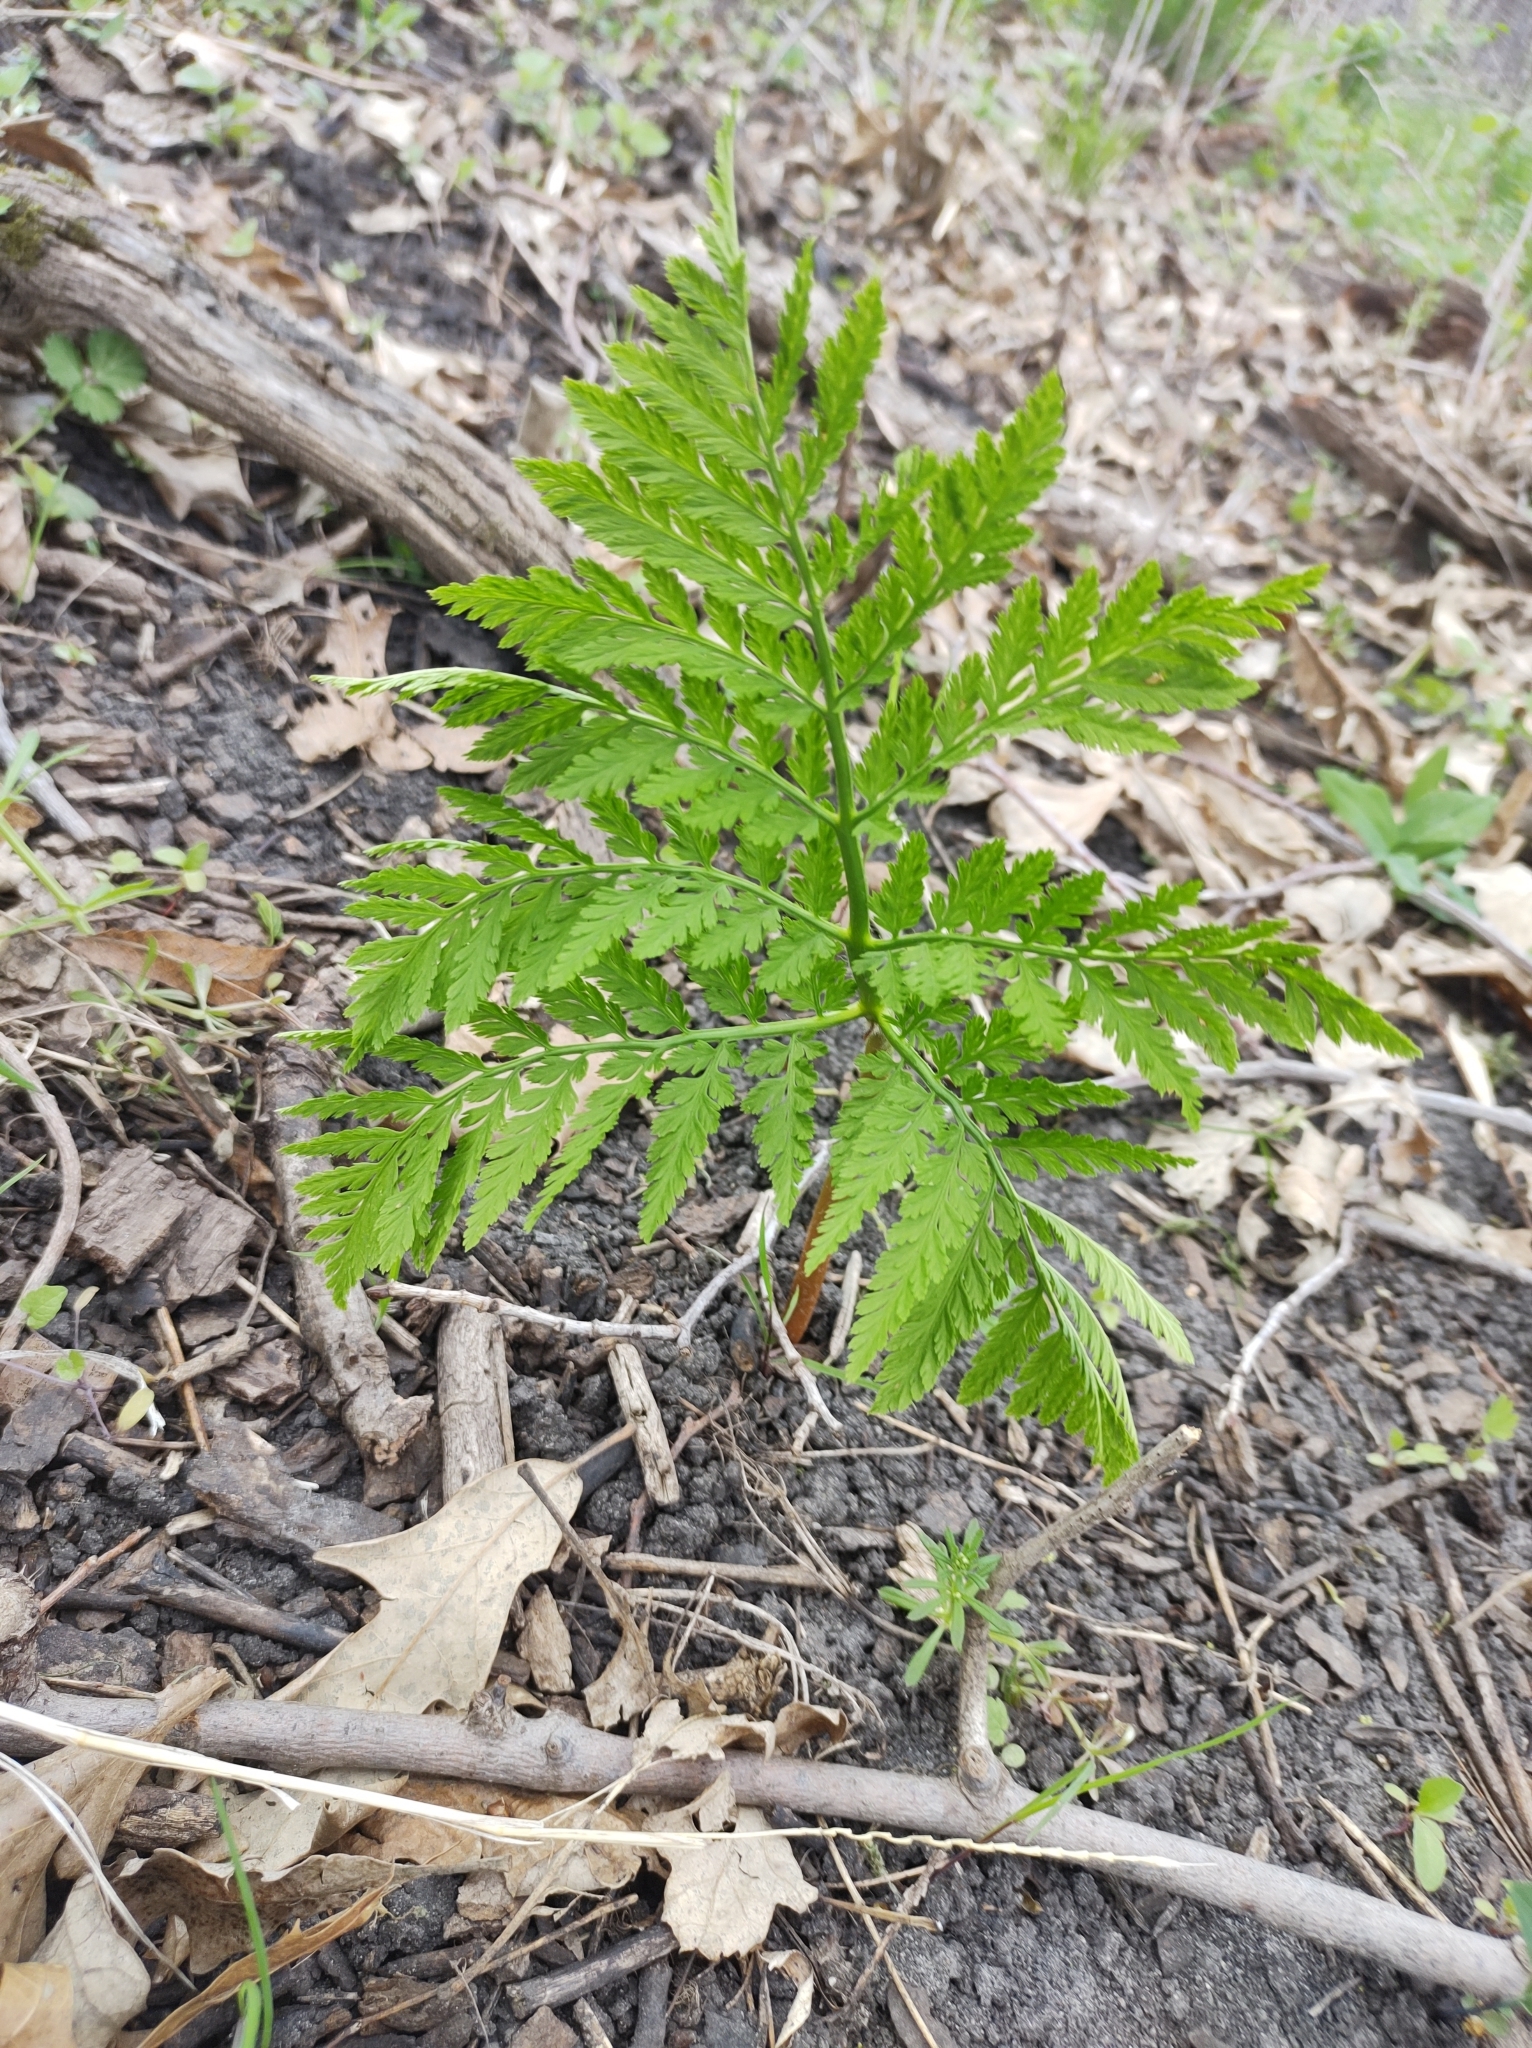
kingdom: Plantae
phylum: Tracheophyta
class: Polypodiopsida
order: Ophioglossales
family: Ophioglossaceae
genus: Botrypus
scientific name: Botrypus virginianus
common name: Common grapefern
